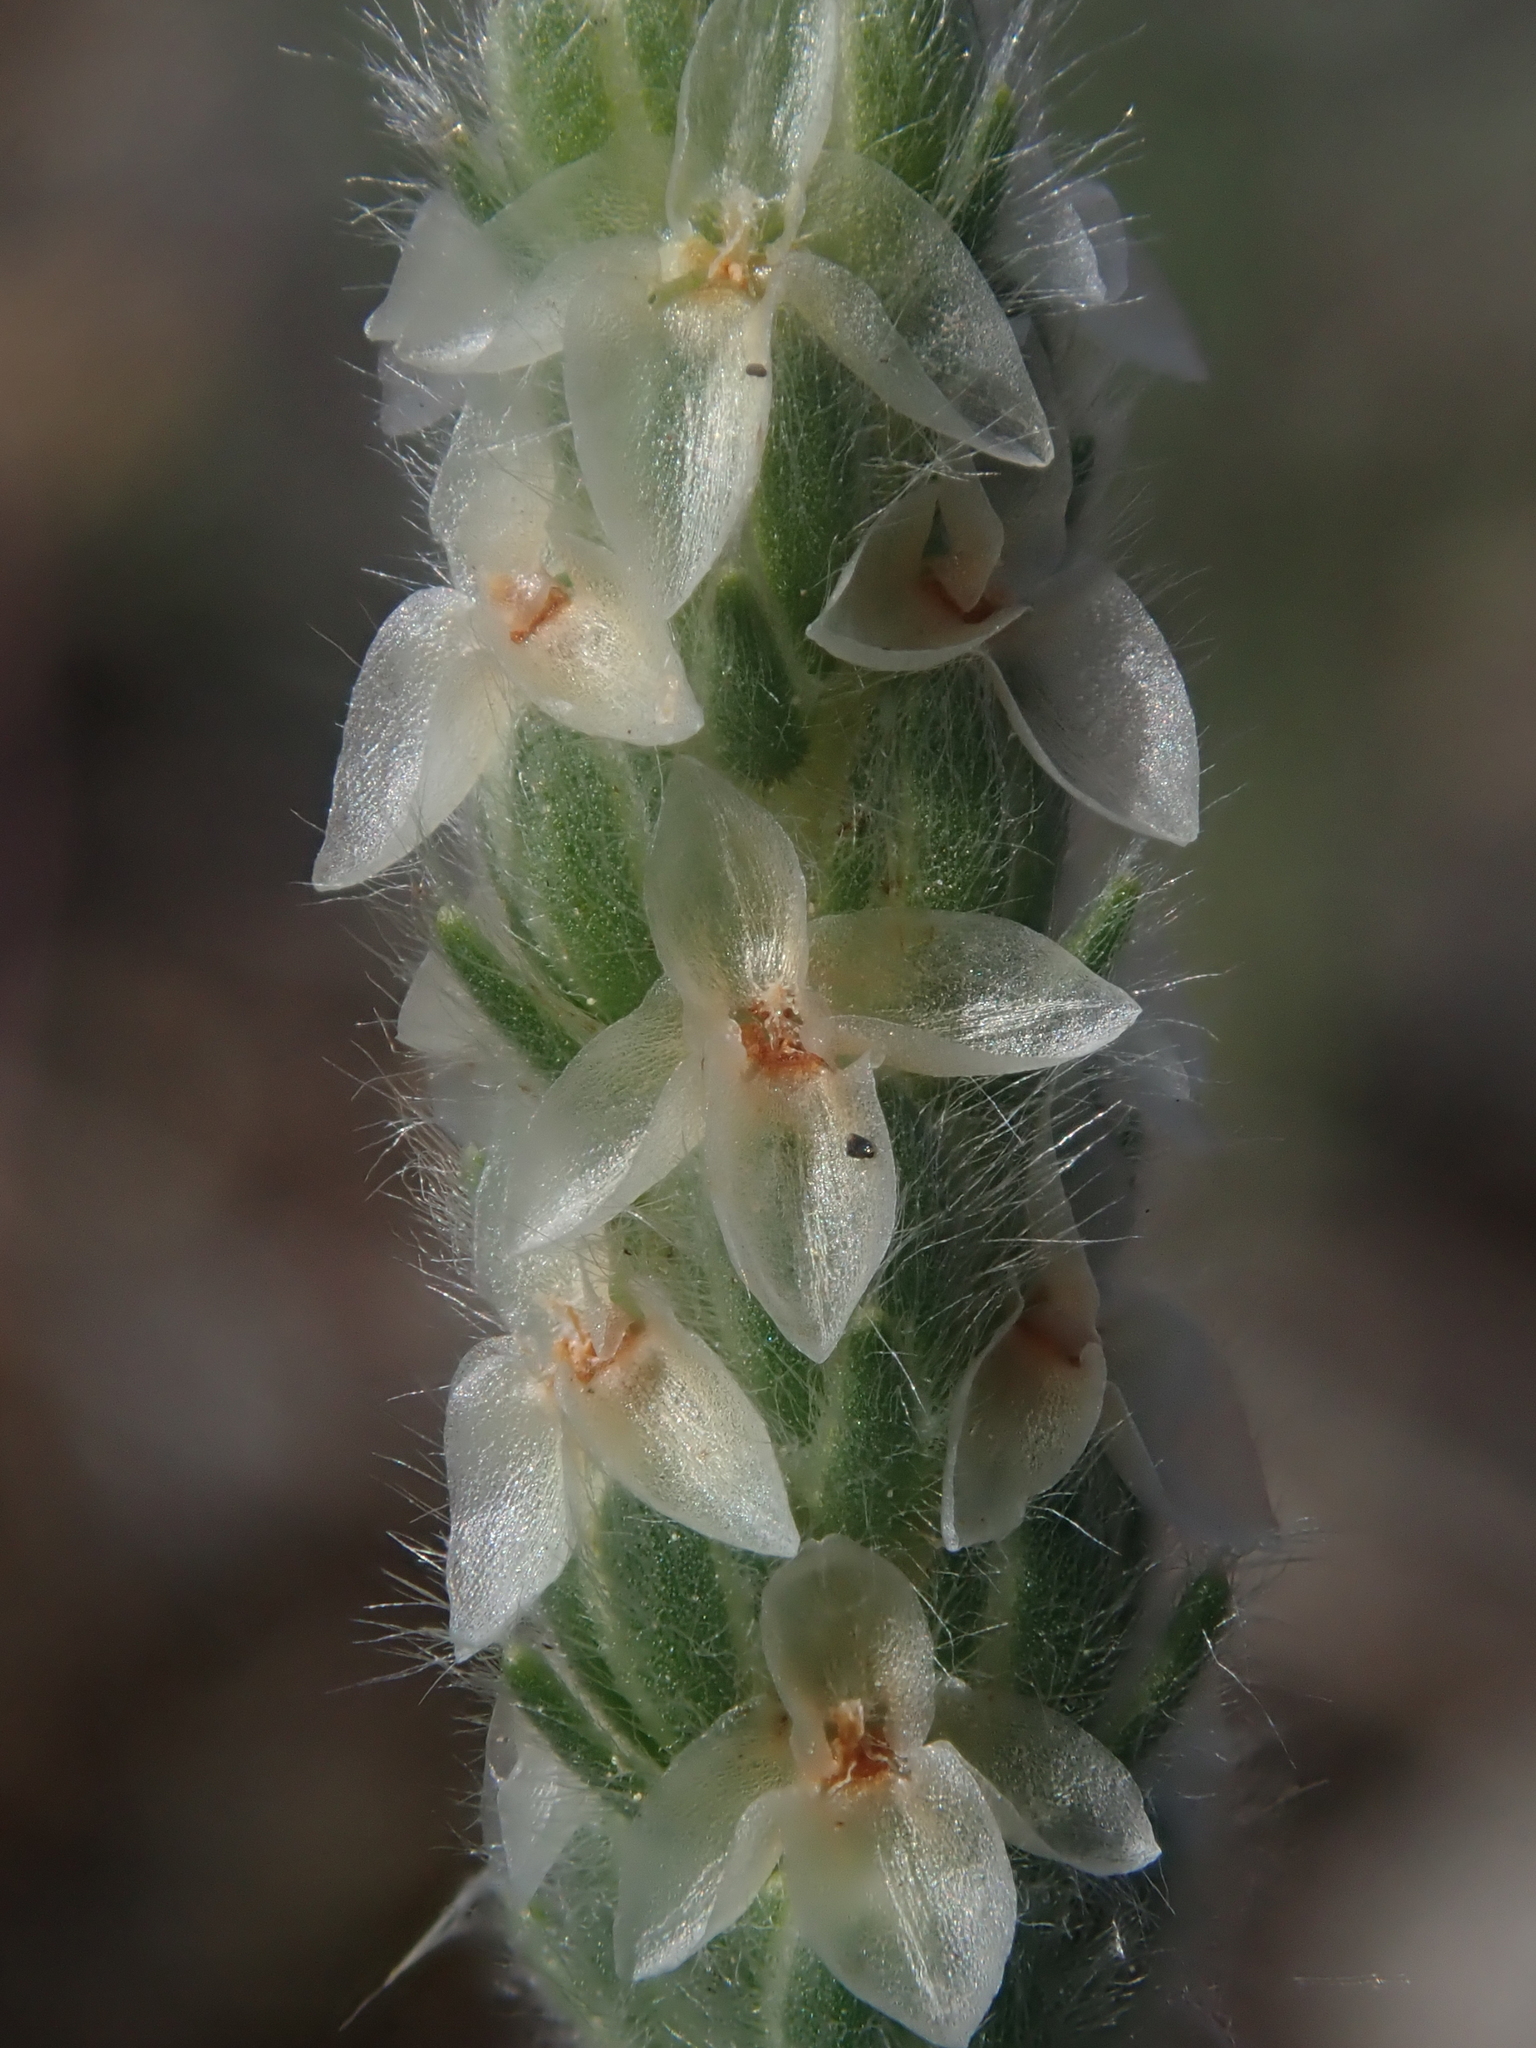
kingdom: Plantae
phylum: Tracheophyta
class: Magnoliopsida
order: Lamiales
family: Plantaginaceae
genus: Plantago
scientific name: Plantago patagonica
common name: Patagonia indian-wheat
